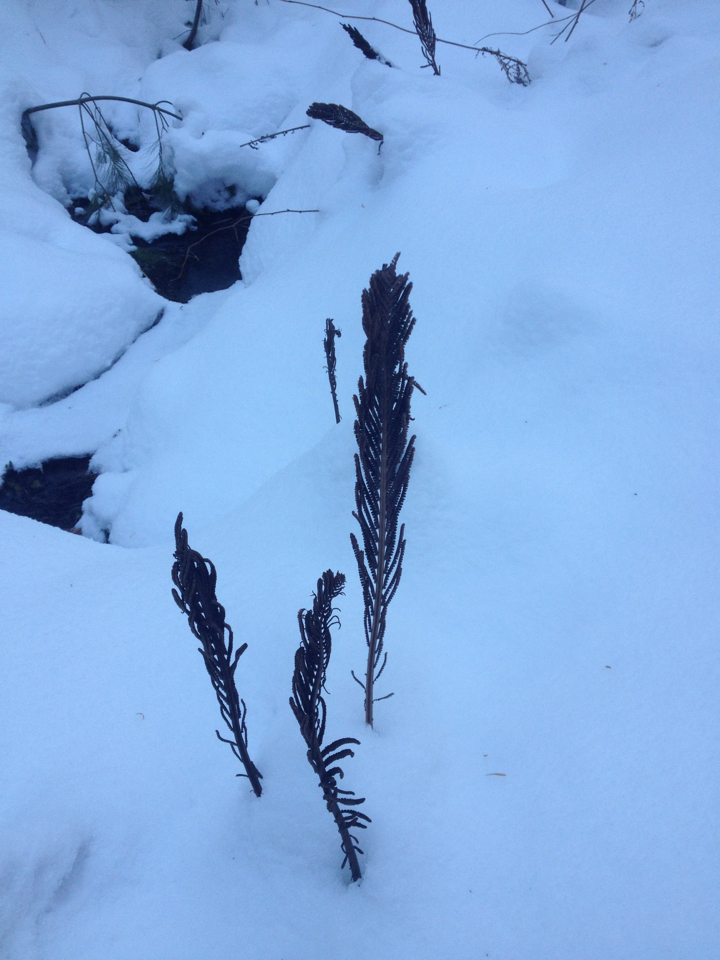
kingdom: Plantae
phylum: Tracheophyta
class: Polypodiopsida
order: Polypodiales
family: Onocleaceae
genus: Matteuccia
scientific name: Matteuccia struthiopteris
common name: Ostrich fern
